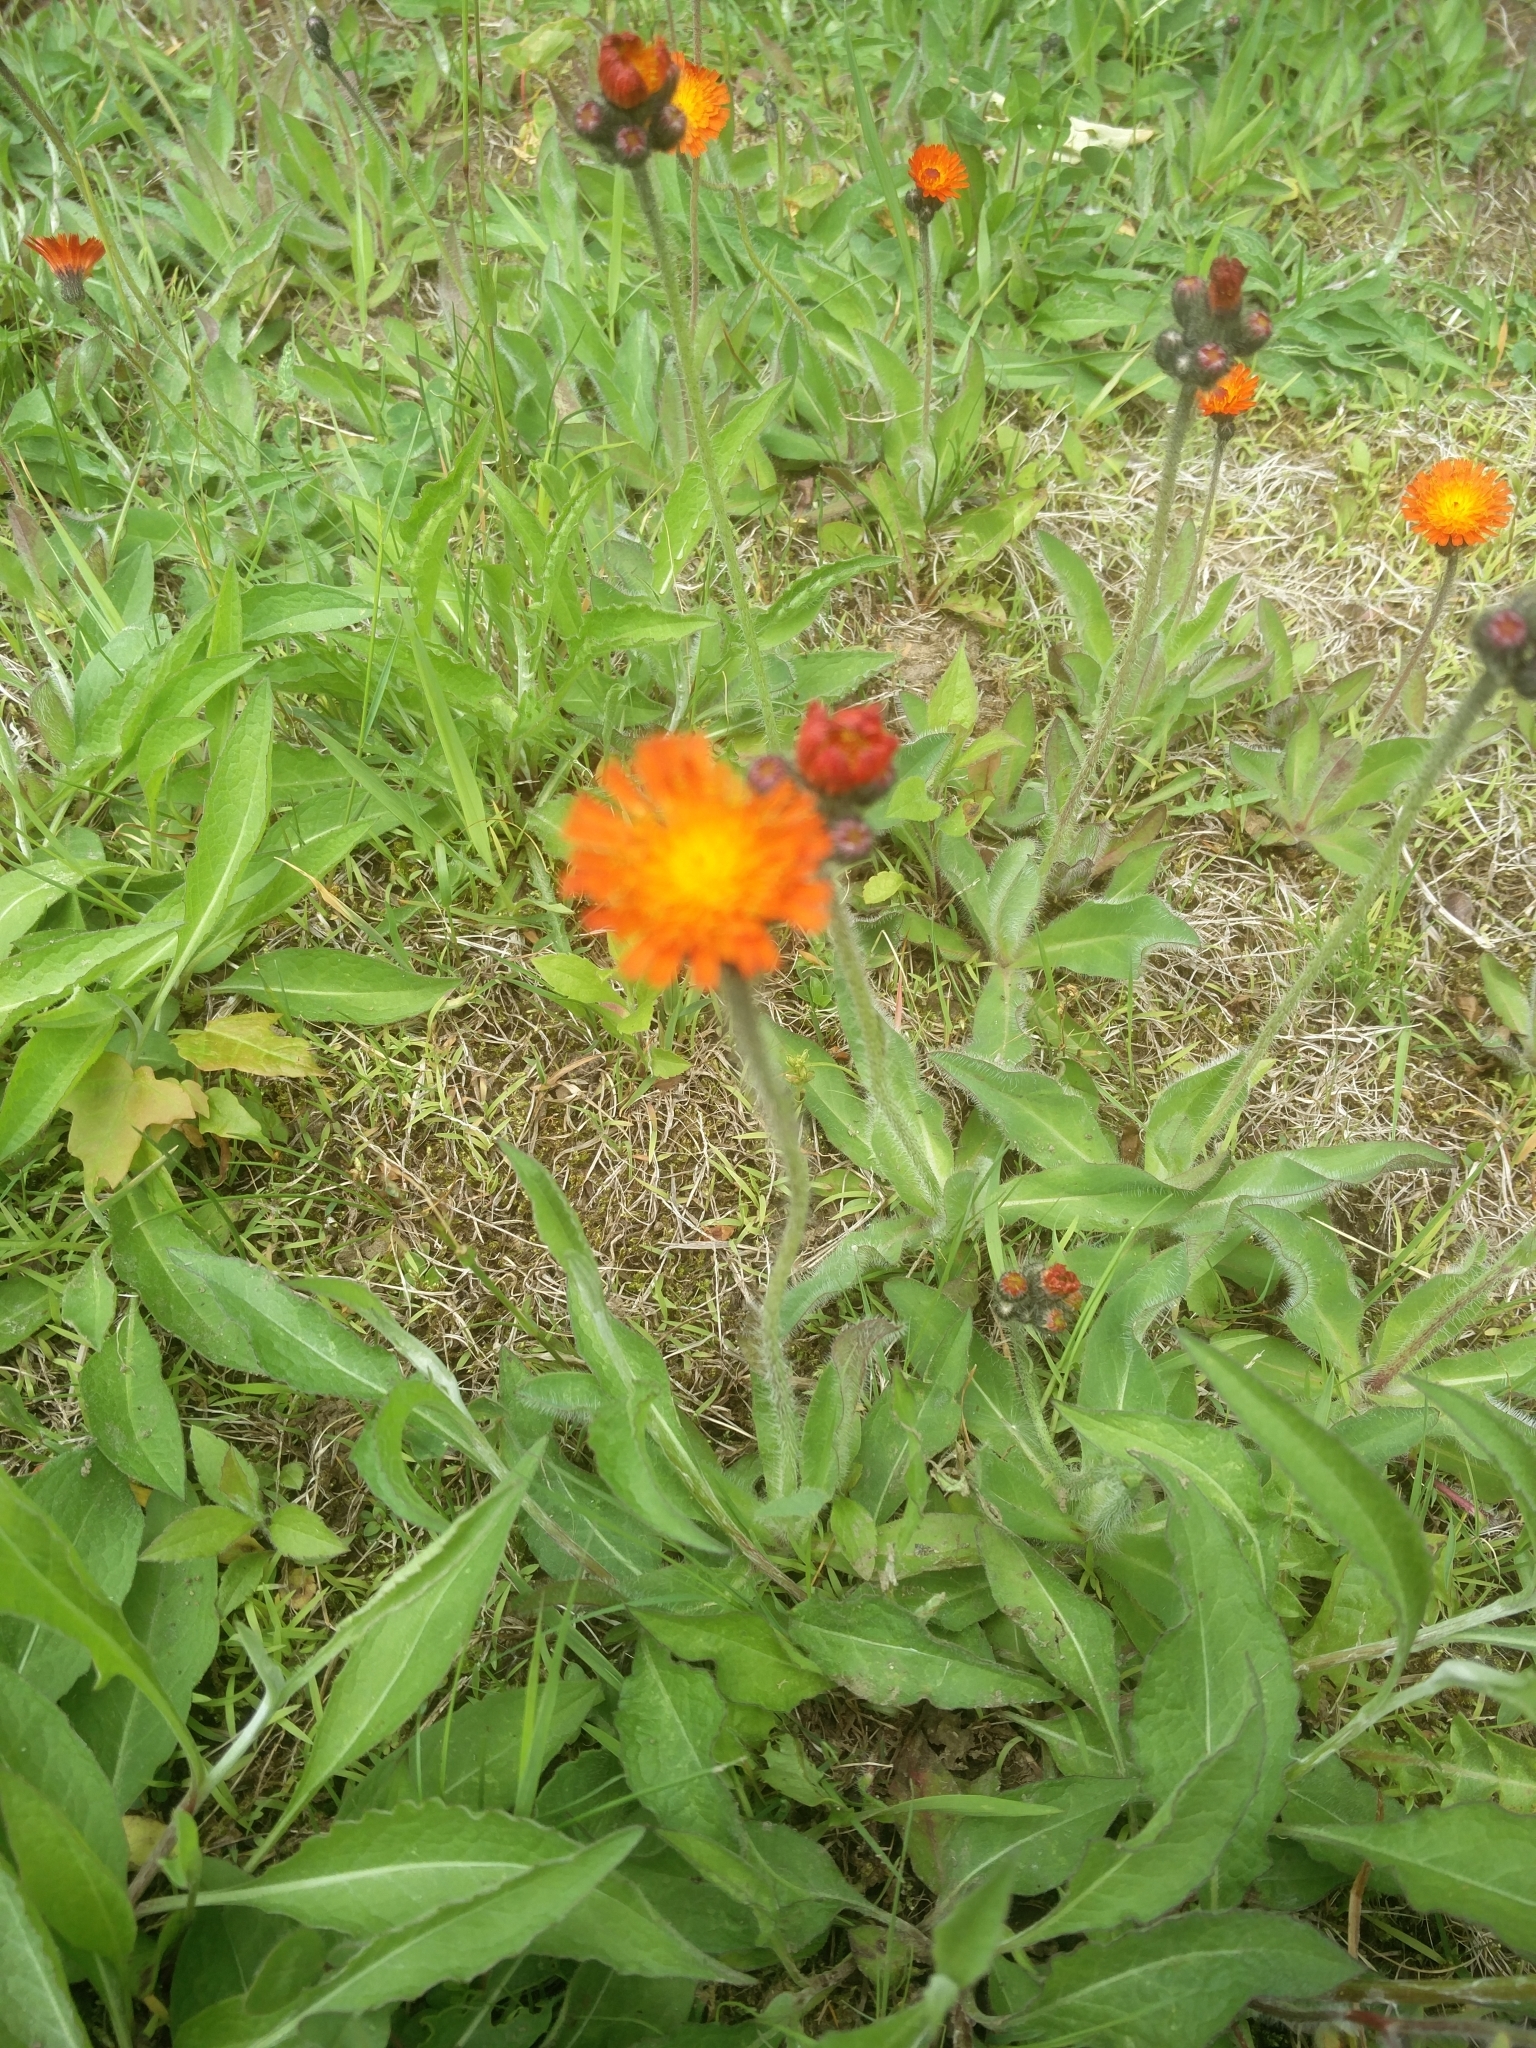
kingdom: Plantae
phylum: Tracheophyta
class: Magnoliopsida
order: Asterales
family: Asteraceae
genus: Pilosella
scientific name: Pilosella aurantiaca
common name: Fox-and-cubs
